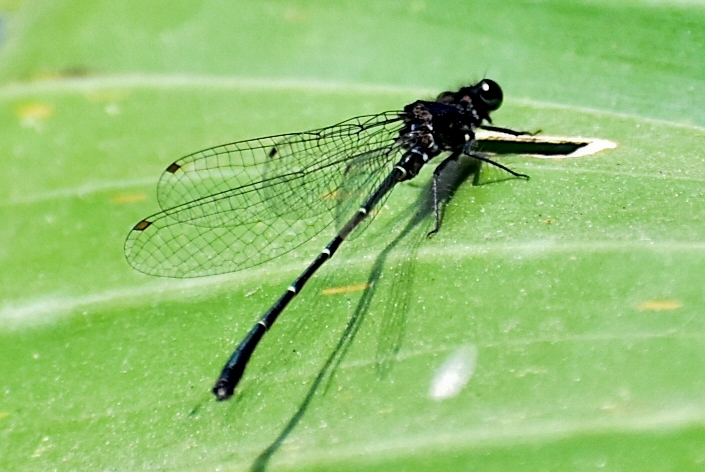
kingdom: Animalia
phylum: Arthropoda
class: Insecta
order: Odonata
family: Platycnemididae
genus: Onychargia
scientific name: Onychargia atrocyana
